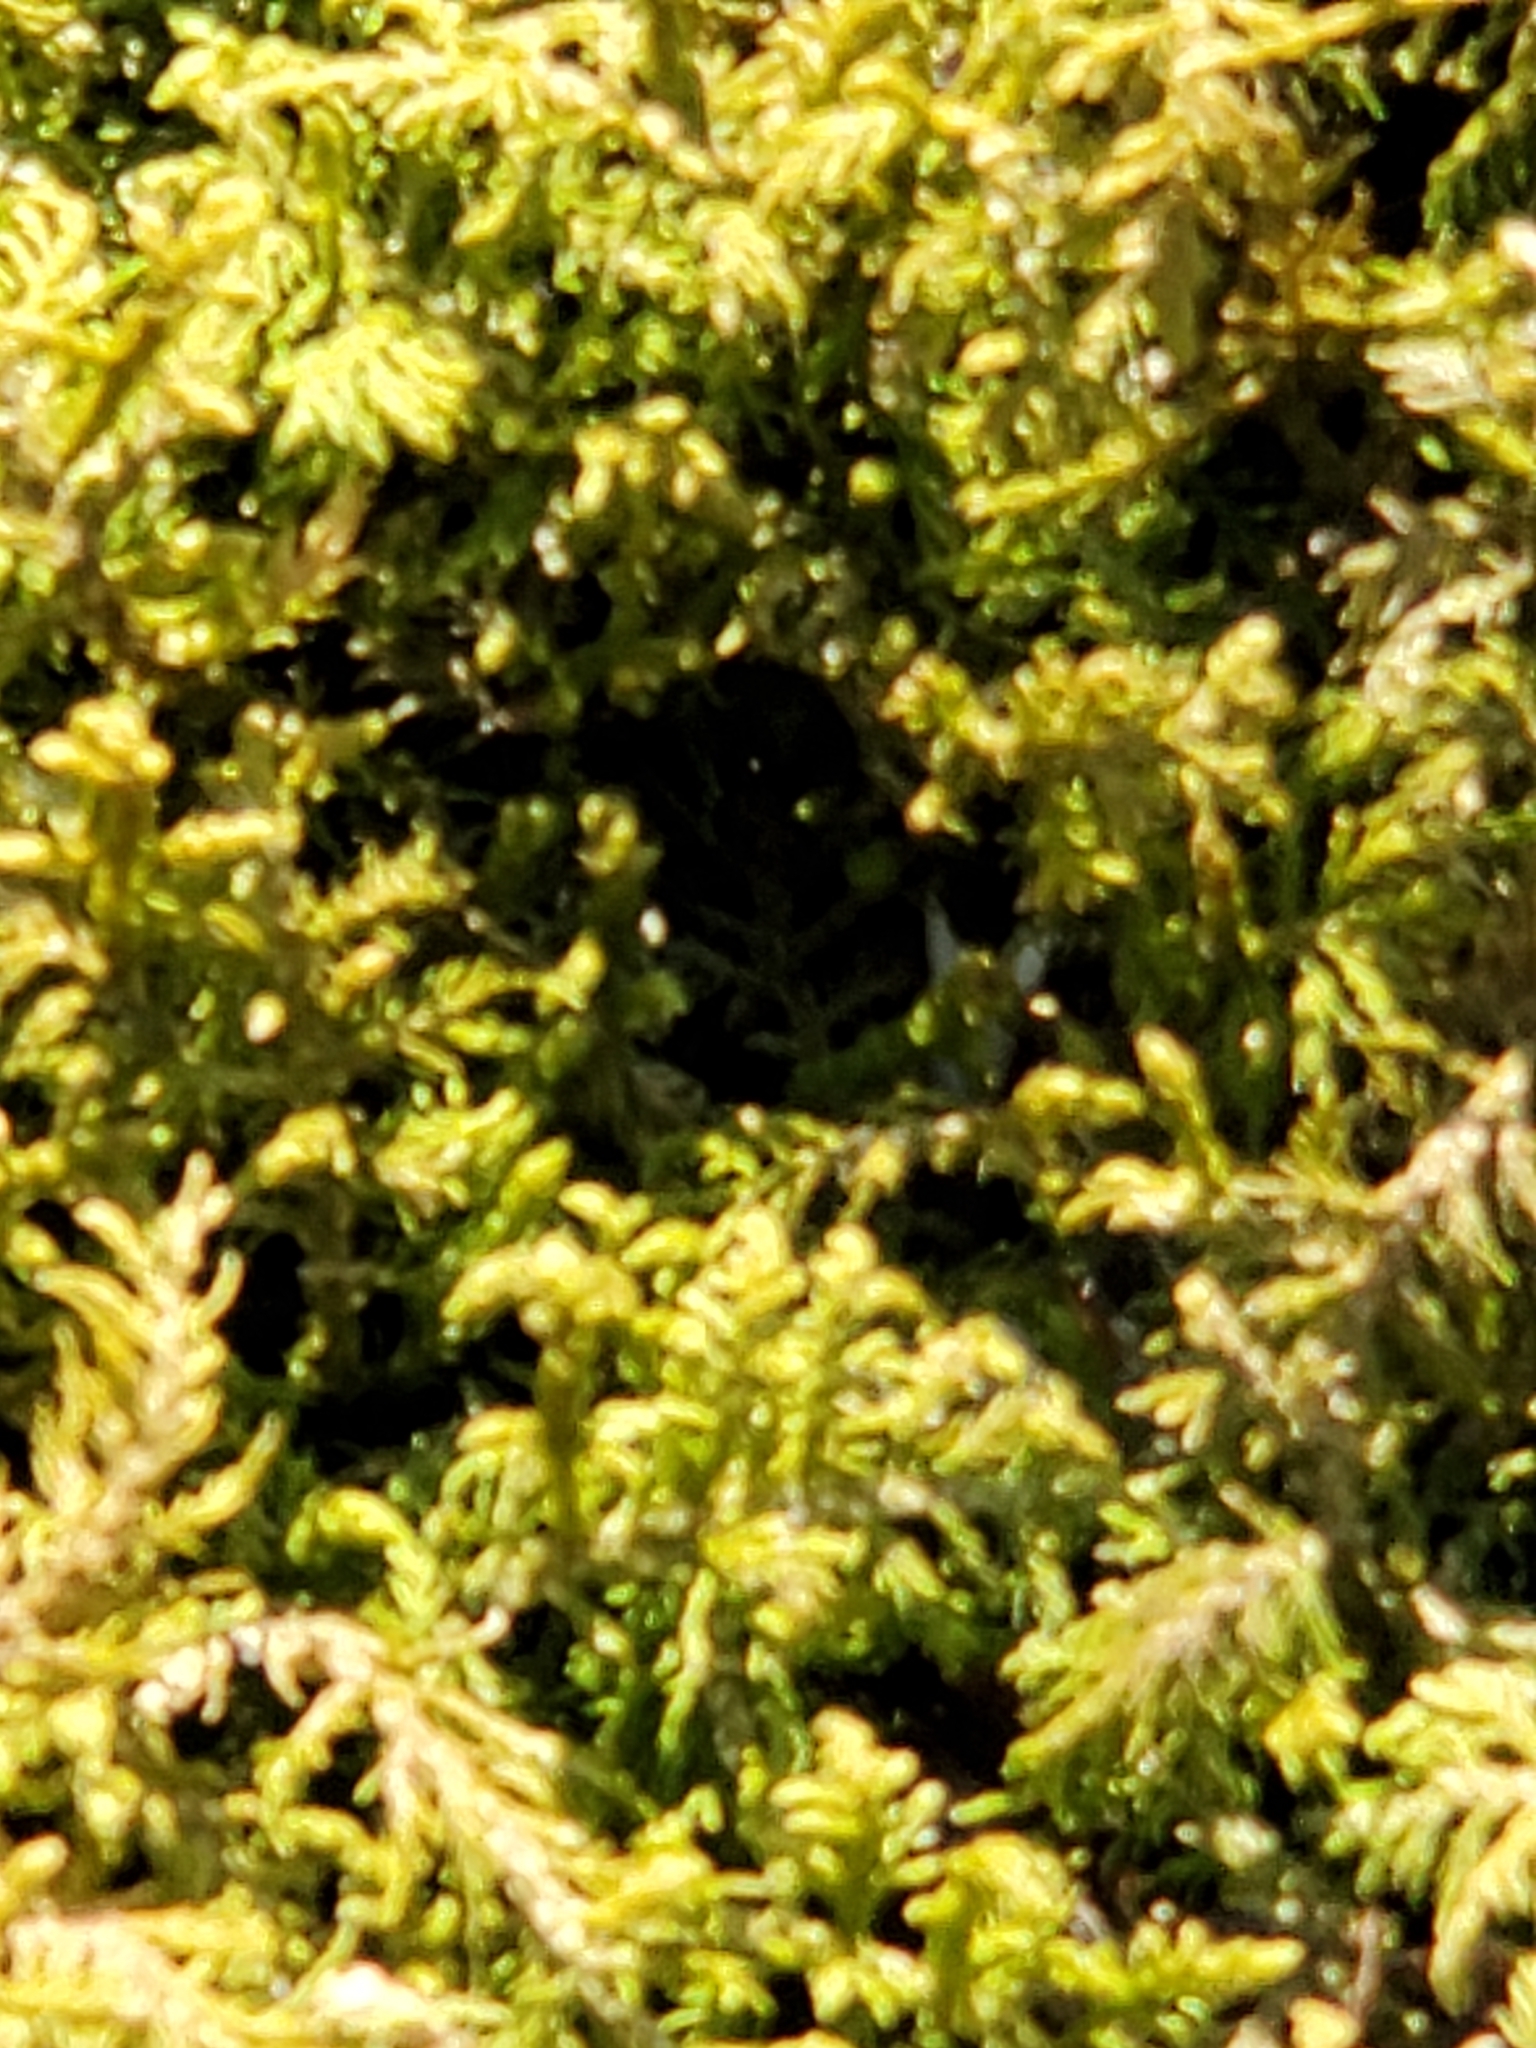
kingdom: Plantae
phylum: Bryophyta
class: Bryopsida
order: Hypnales
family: Callicladiaceae
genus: Callicladium
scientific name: Callicladium imponens
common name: Brocade moss
